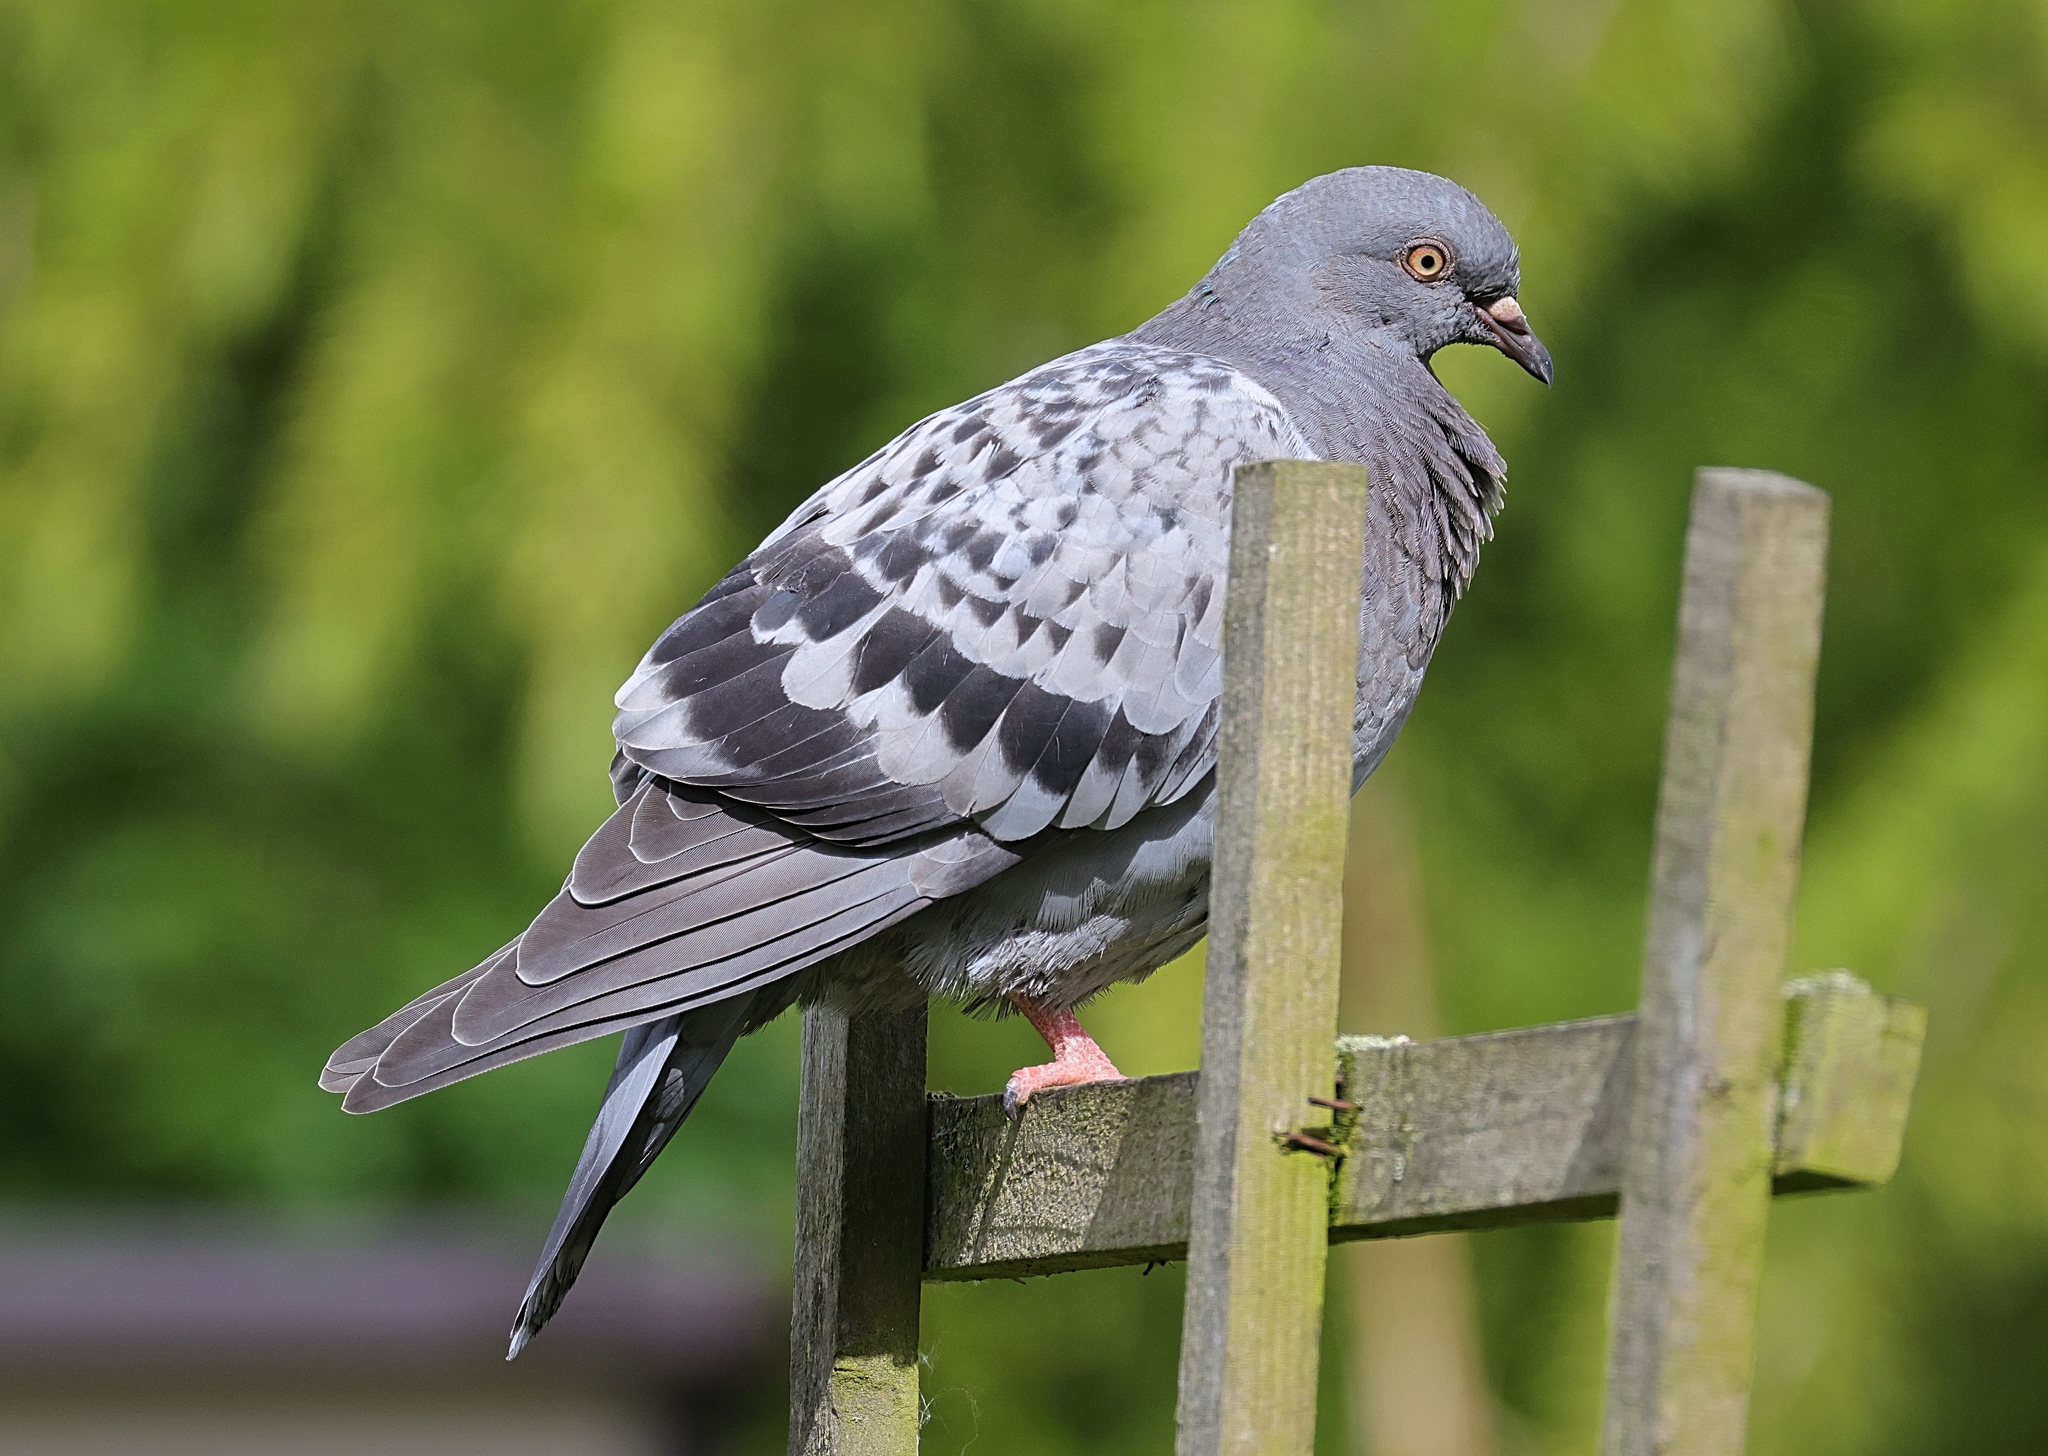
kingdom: Animalia
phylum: Chordata
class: Aves
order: Columbiformes
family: Columbidae
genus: Columba
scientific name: Columba livia
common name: Rock pigeon
